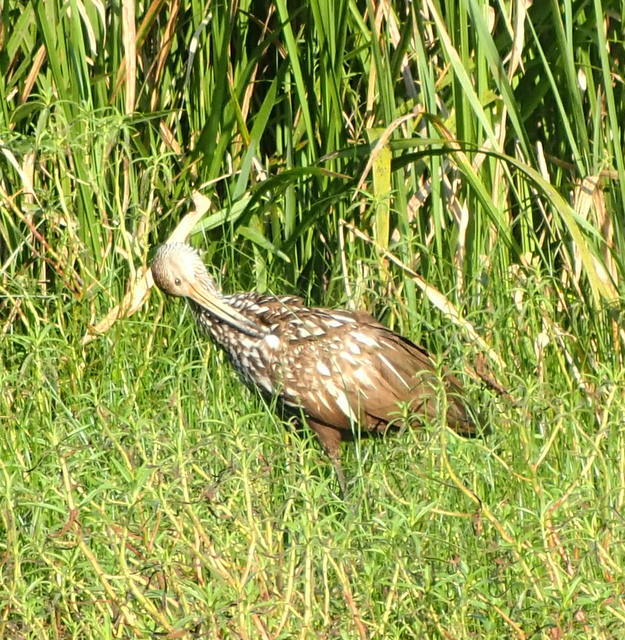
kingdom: Animalia
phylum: Chordata
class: Aves
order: Gruiformes
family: Aramidae
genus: Aramus
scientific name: Aramus guarauna
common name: Limpkin
